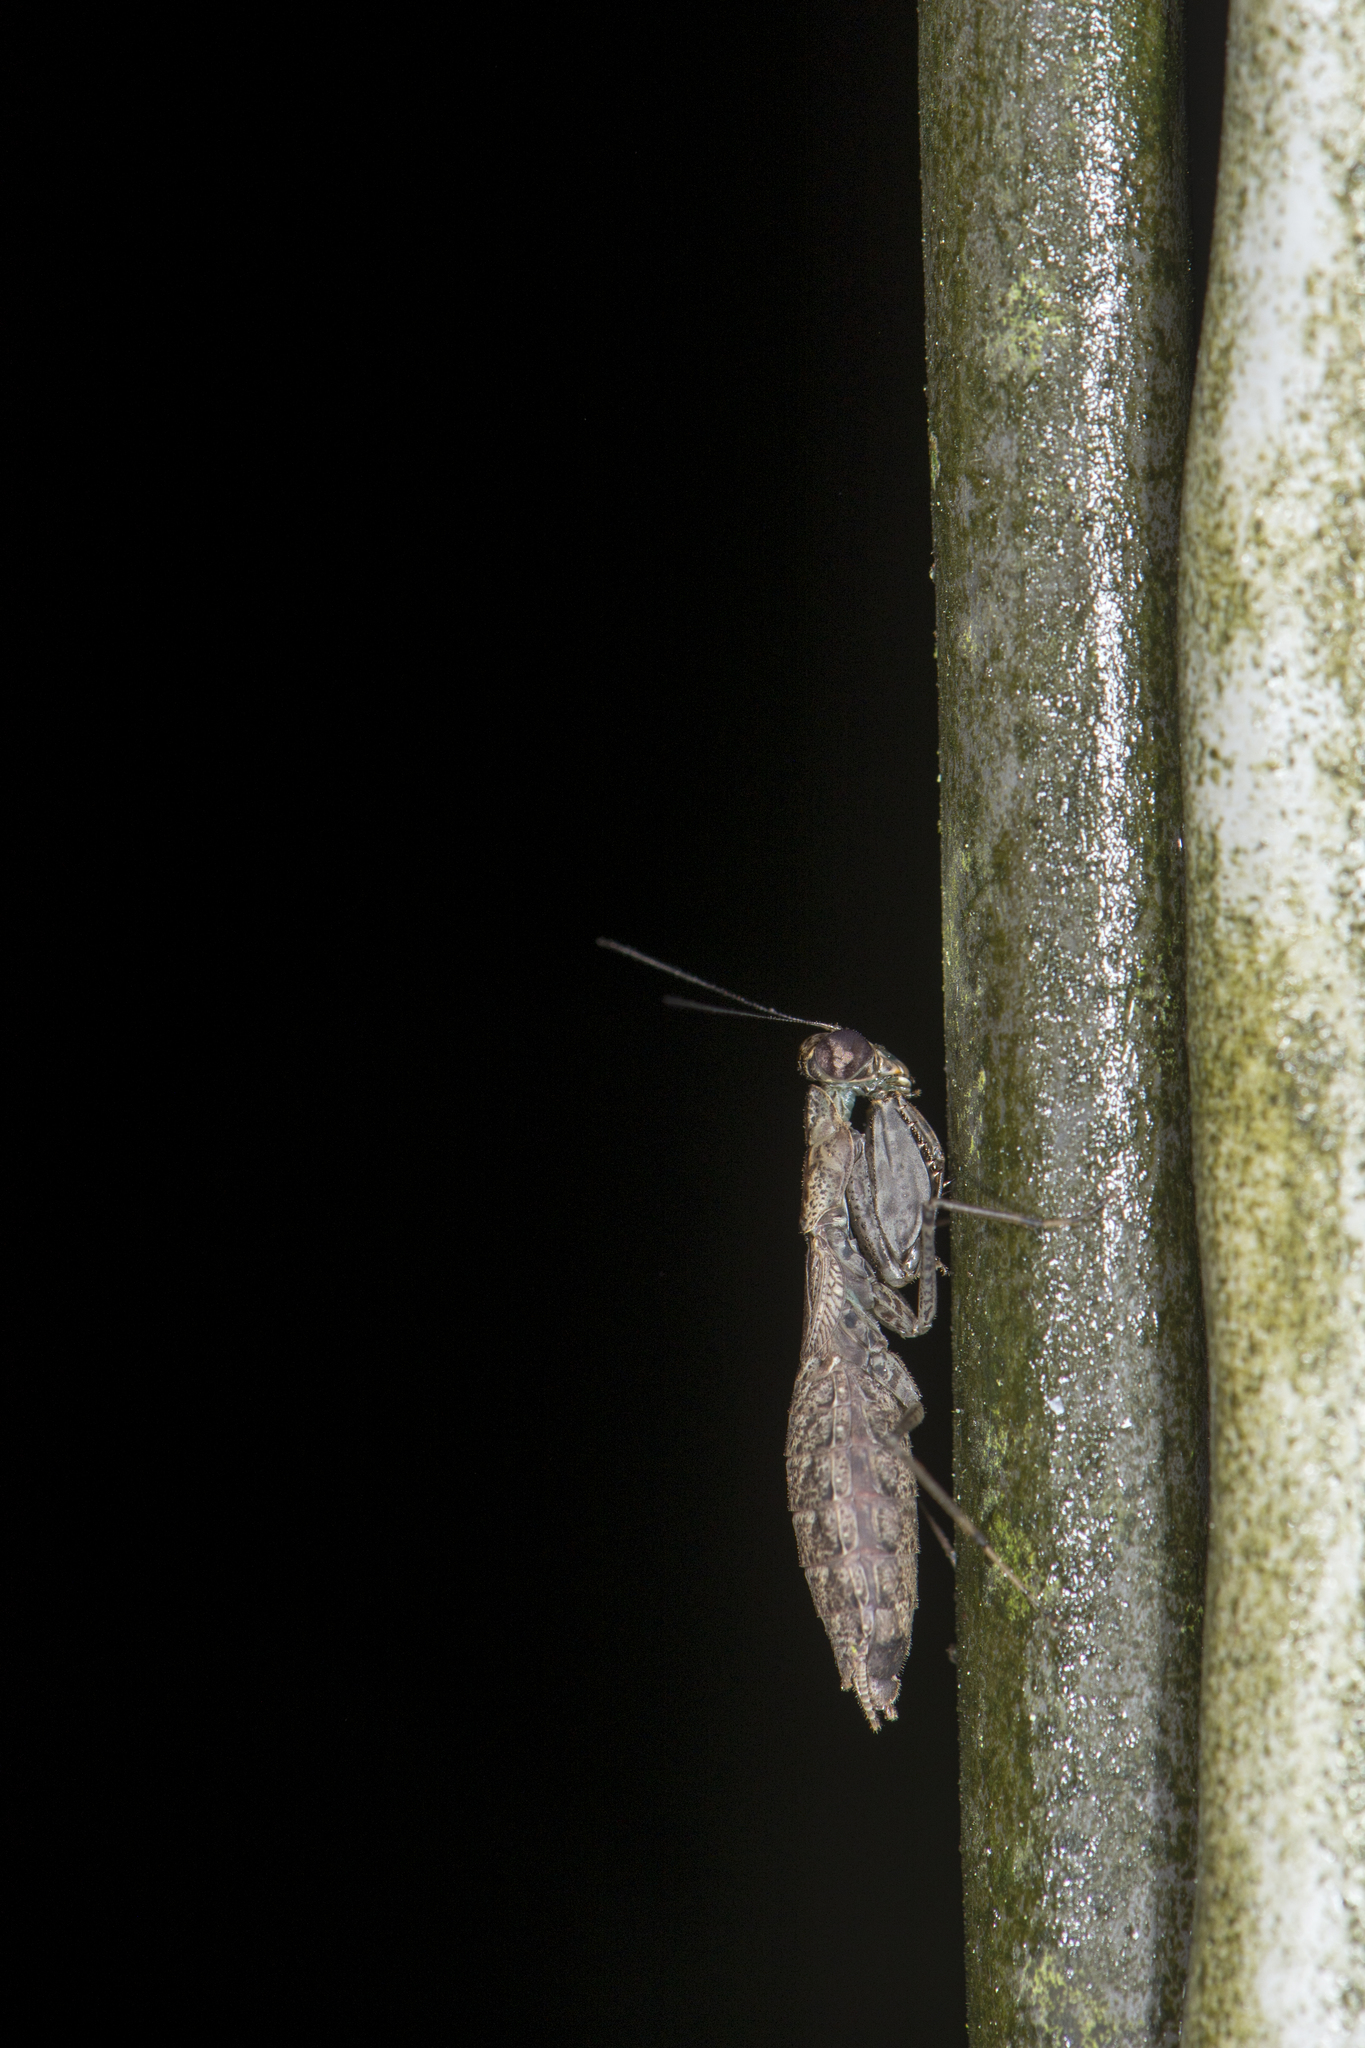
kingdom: Animalia
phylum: Arthropoda
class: Insecta
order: Mantodea
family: Gonypetidae
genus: Amantis
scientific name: Amantis nawai
